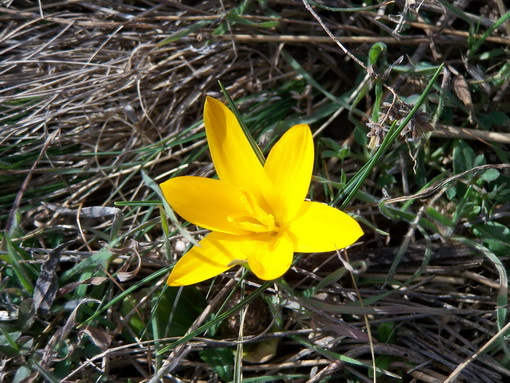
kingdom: Plantae
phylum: Tracheophyta
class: Liliopsida
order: Asparagales
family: Iridaceae
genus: Crocus
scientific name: Crocus angustifolius
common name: Cloth of gold
